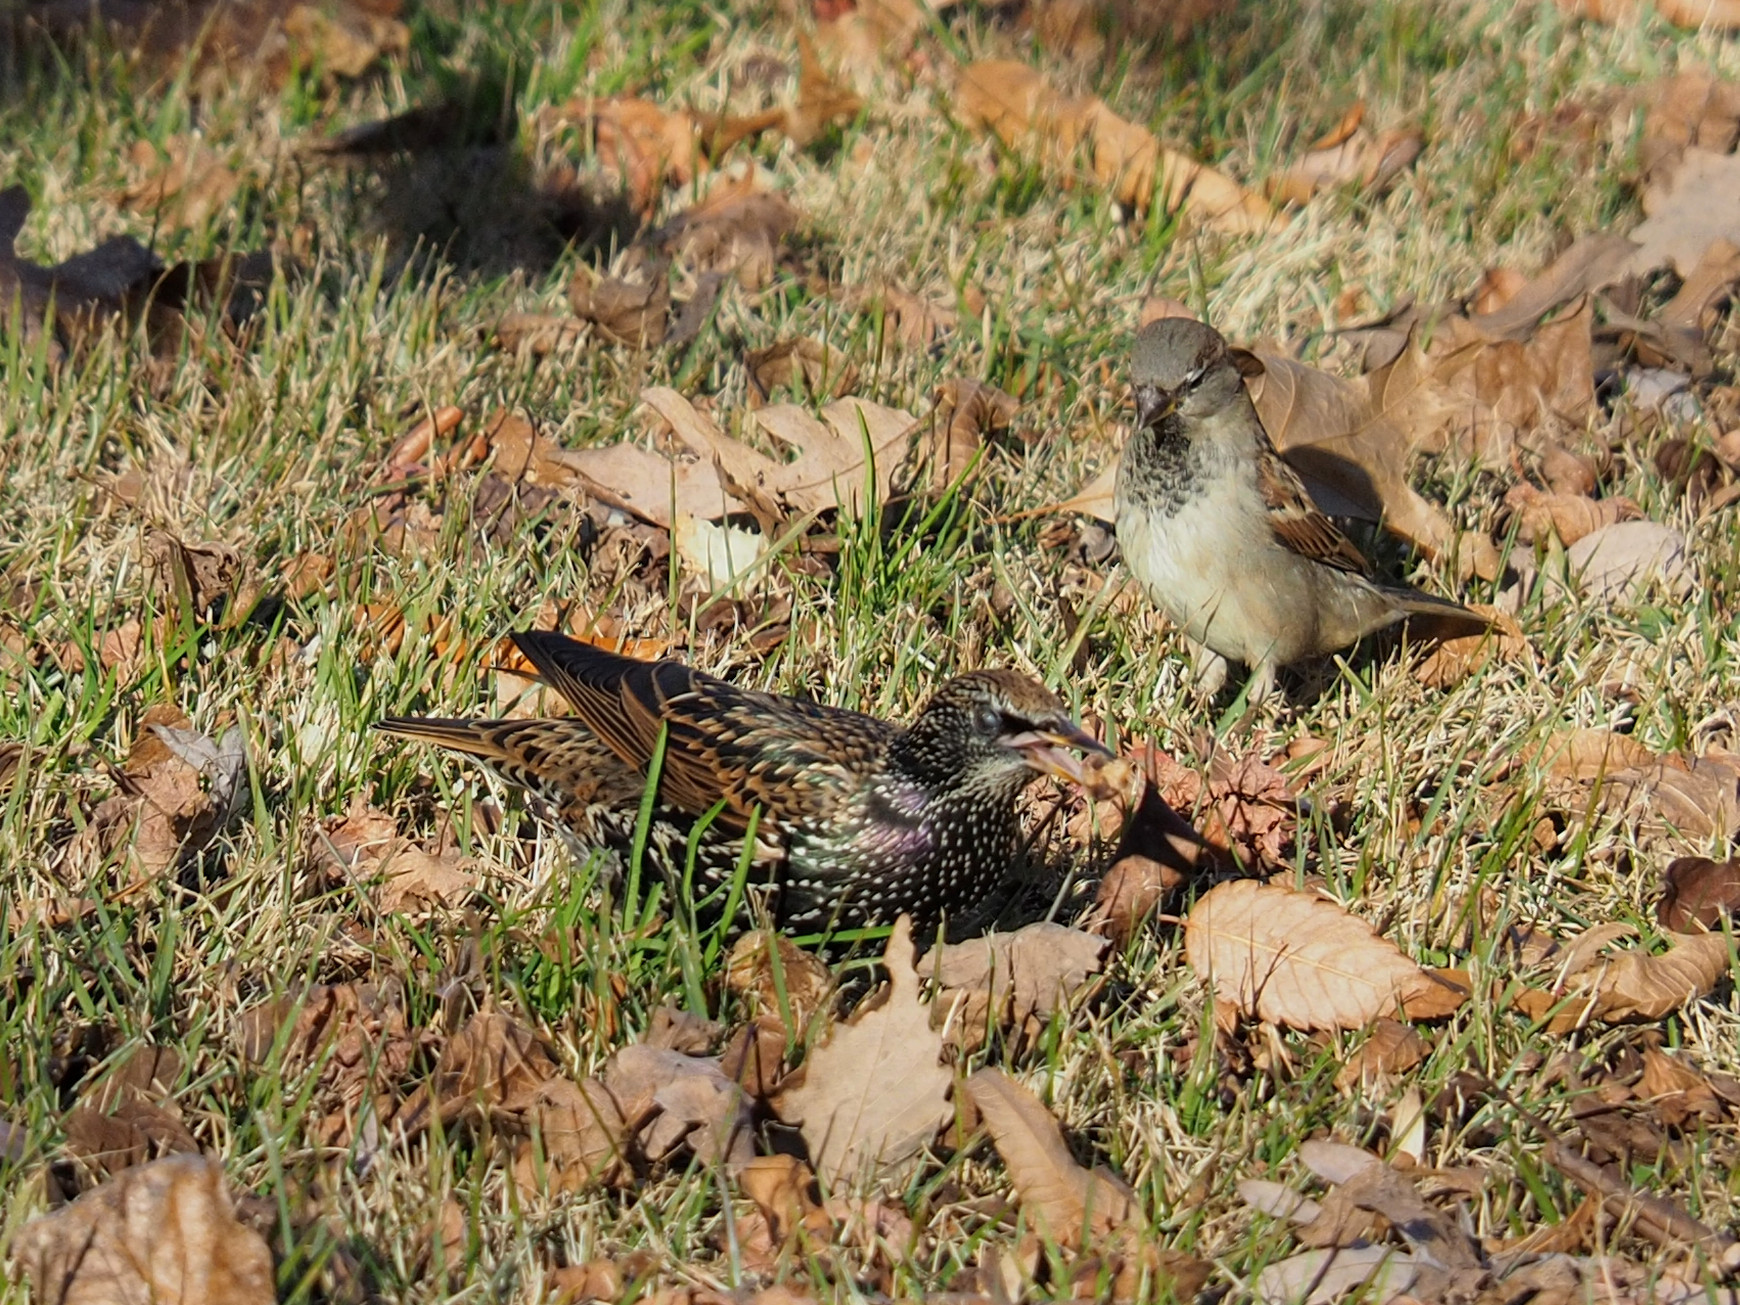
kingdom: Animalia
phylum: Chordata
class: Aves
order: Passeriformes
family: Passeridae
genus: Passer
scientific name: Passer domesticus
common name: House sparrow
